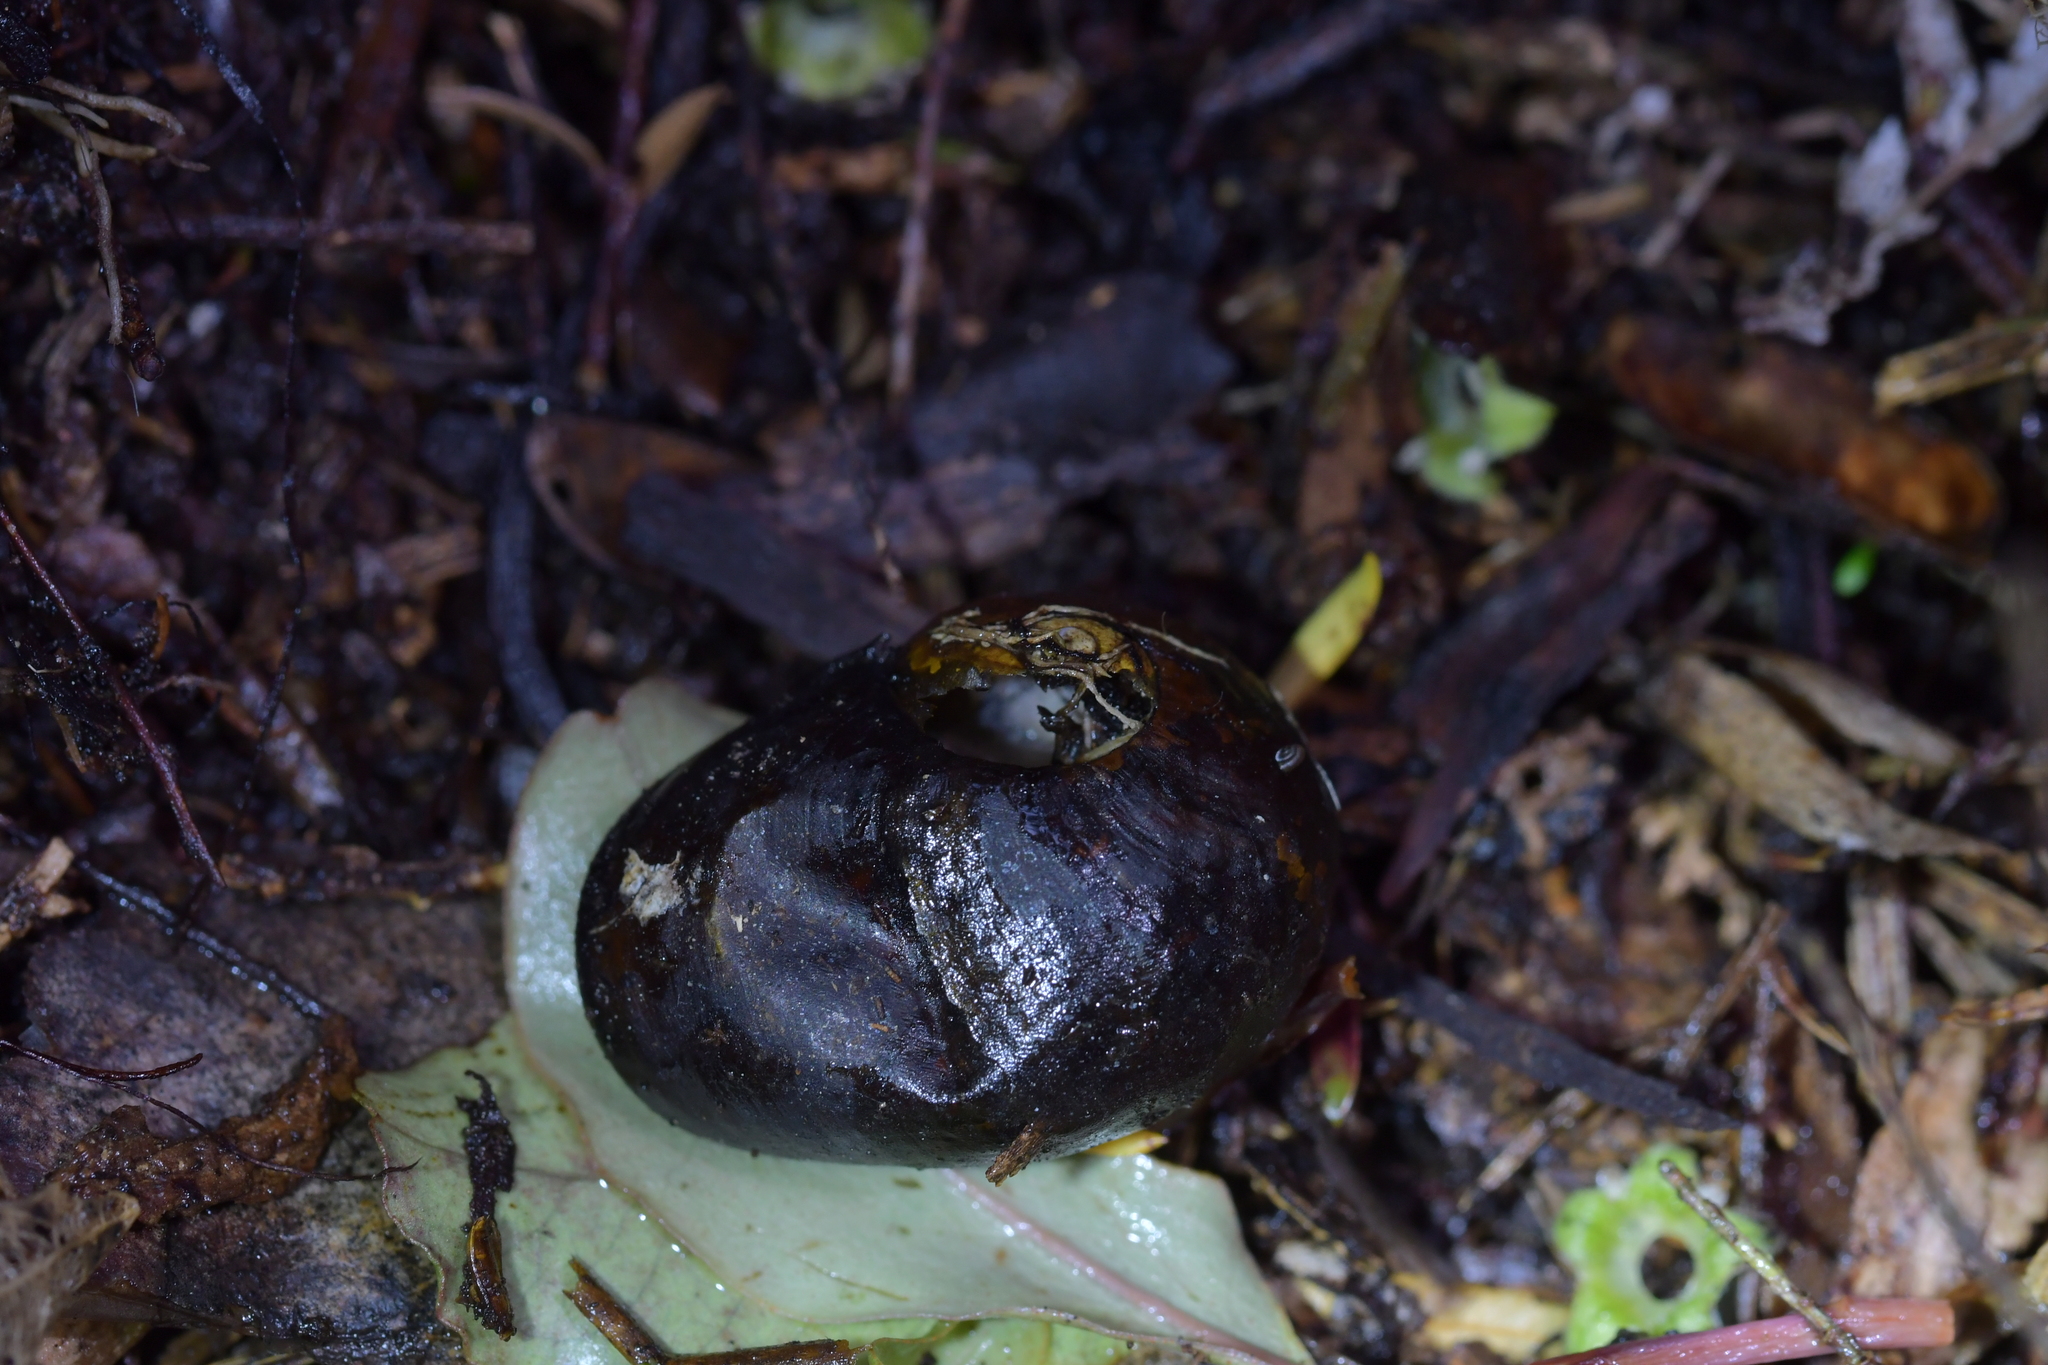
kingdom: Animalia
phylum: Mollusca
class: Gastropoda
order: Stylommatophora
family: Rhytididae
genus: Wainuia
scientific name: Wainuia urnula
